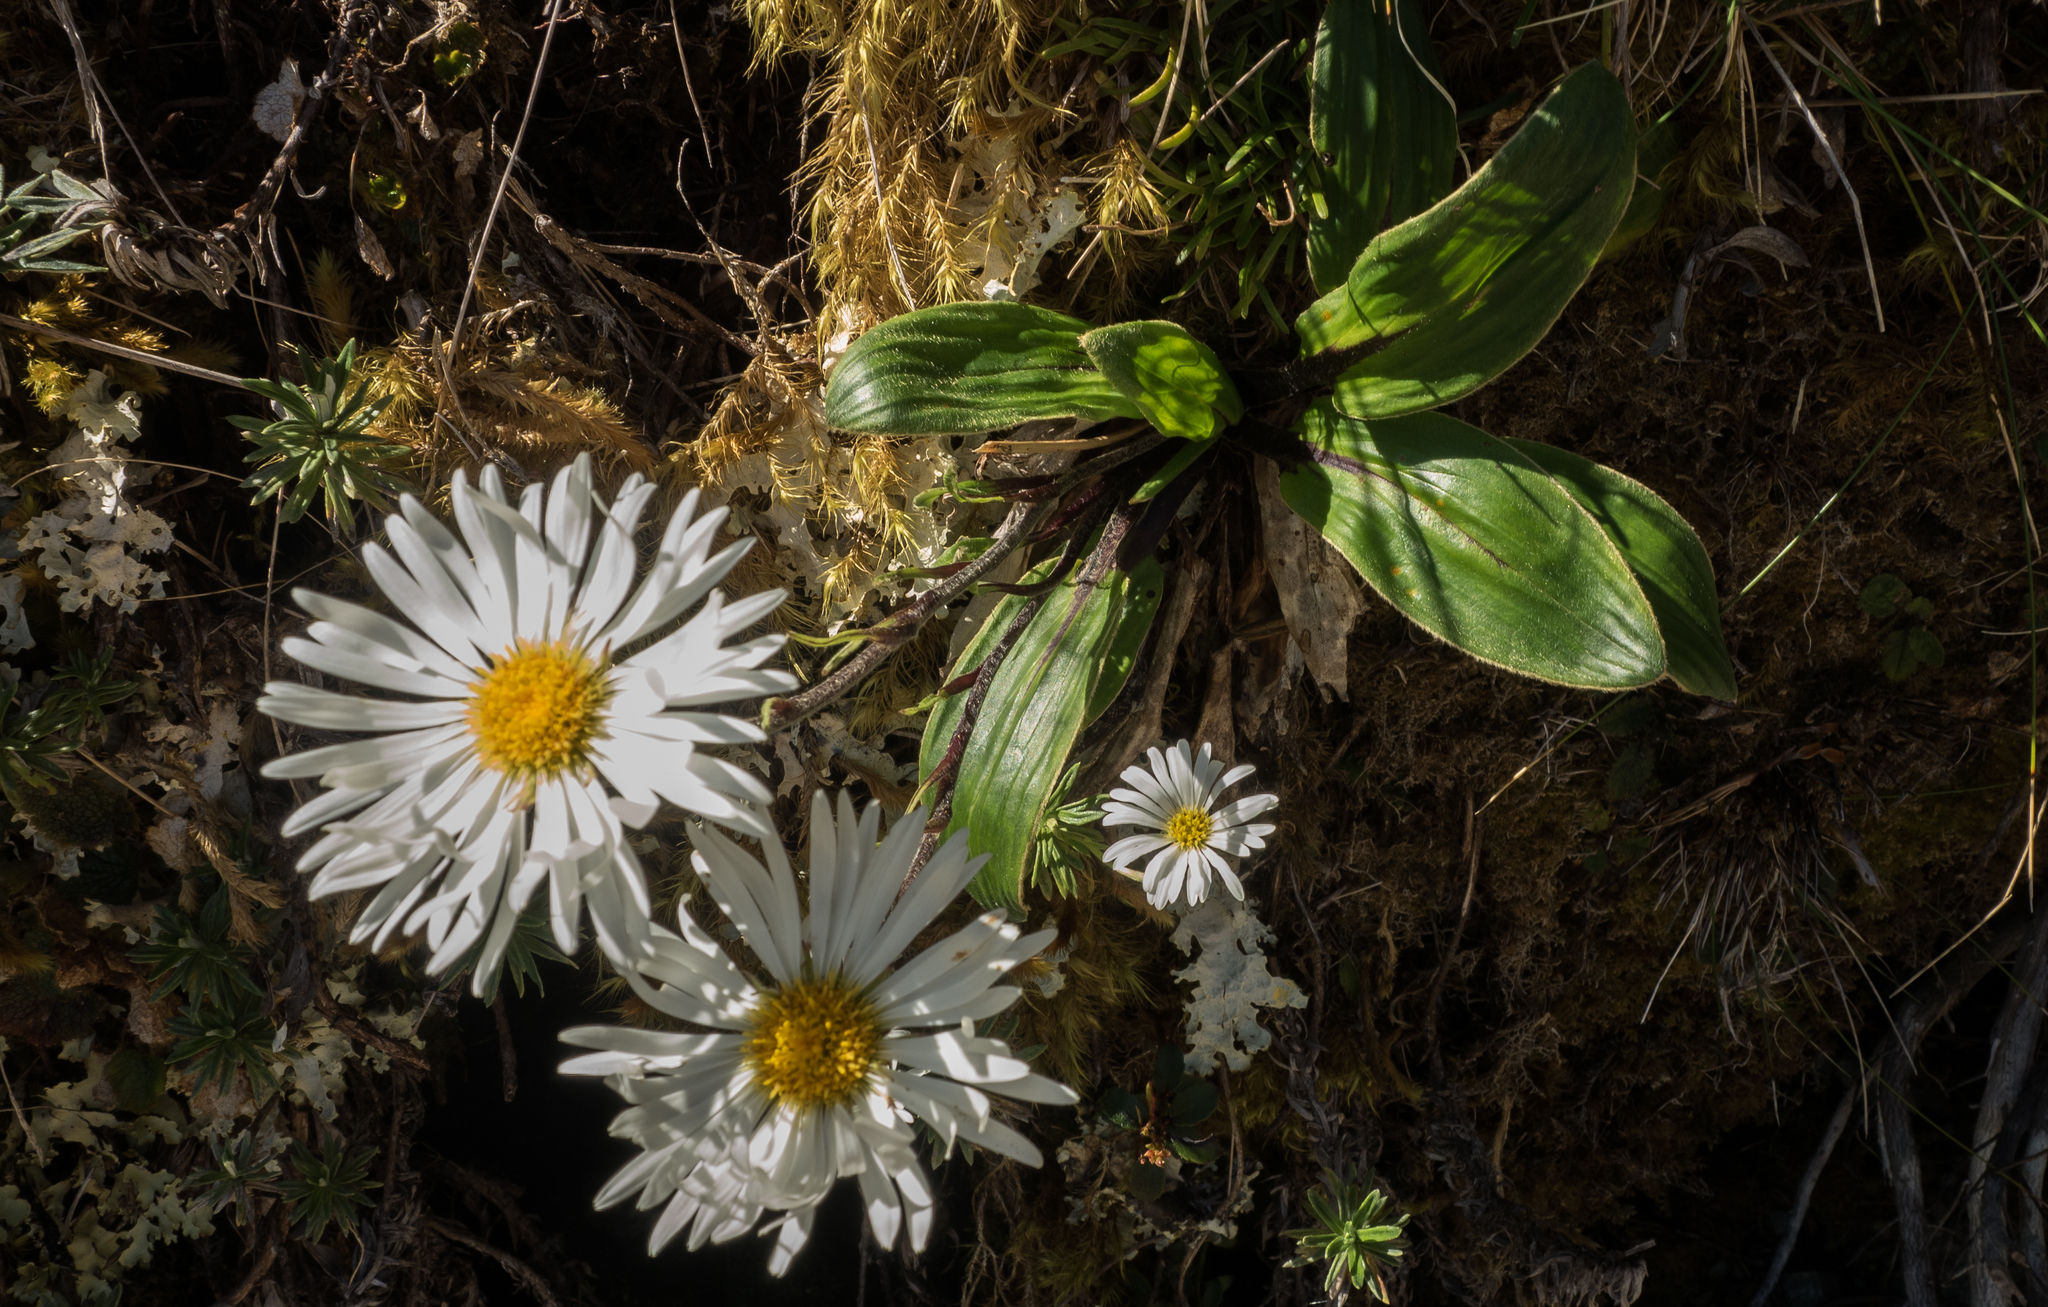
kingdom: Plantae
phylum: Tracheophyta
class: Magnoliopsida
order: Asterales
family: Asteraceae
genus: Celmisia
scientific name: Celmisia verbascifolia
